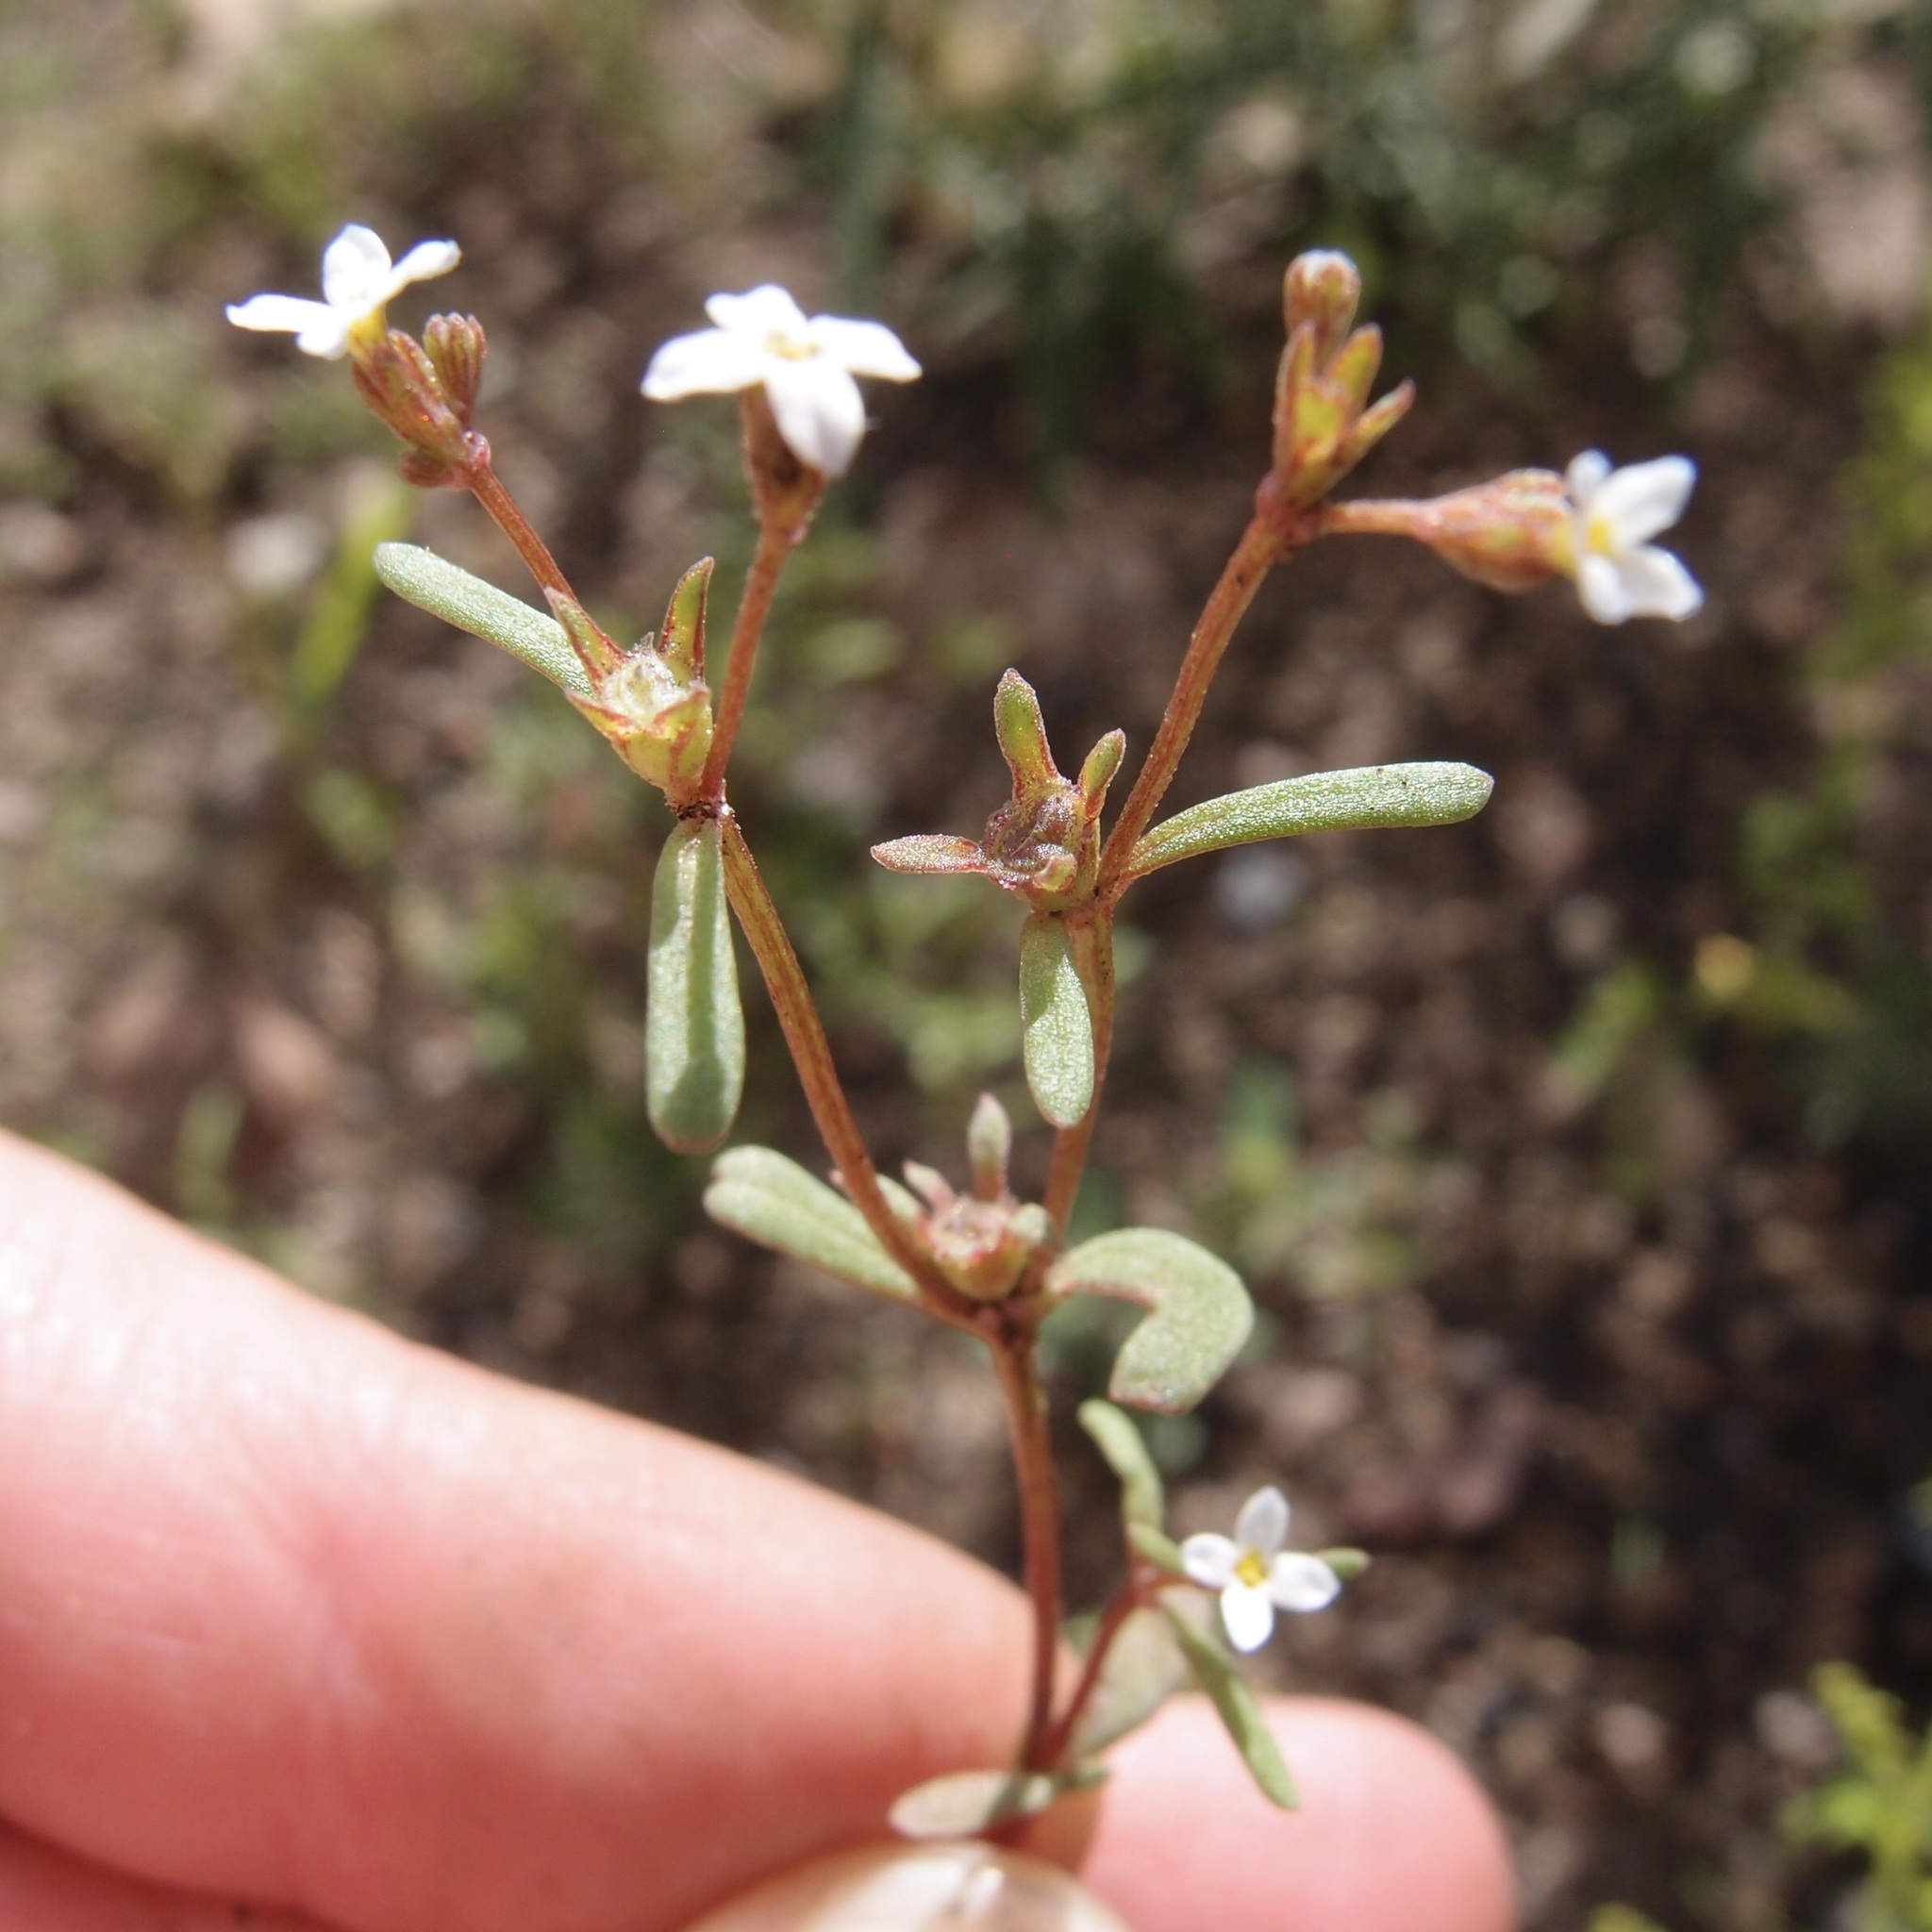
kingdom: Plantae
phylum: Tracheophyta
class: Magnoliopsida
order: Gentianales
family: Rubiaceae
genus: Stenotis
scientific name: Stenotis greenei
